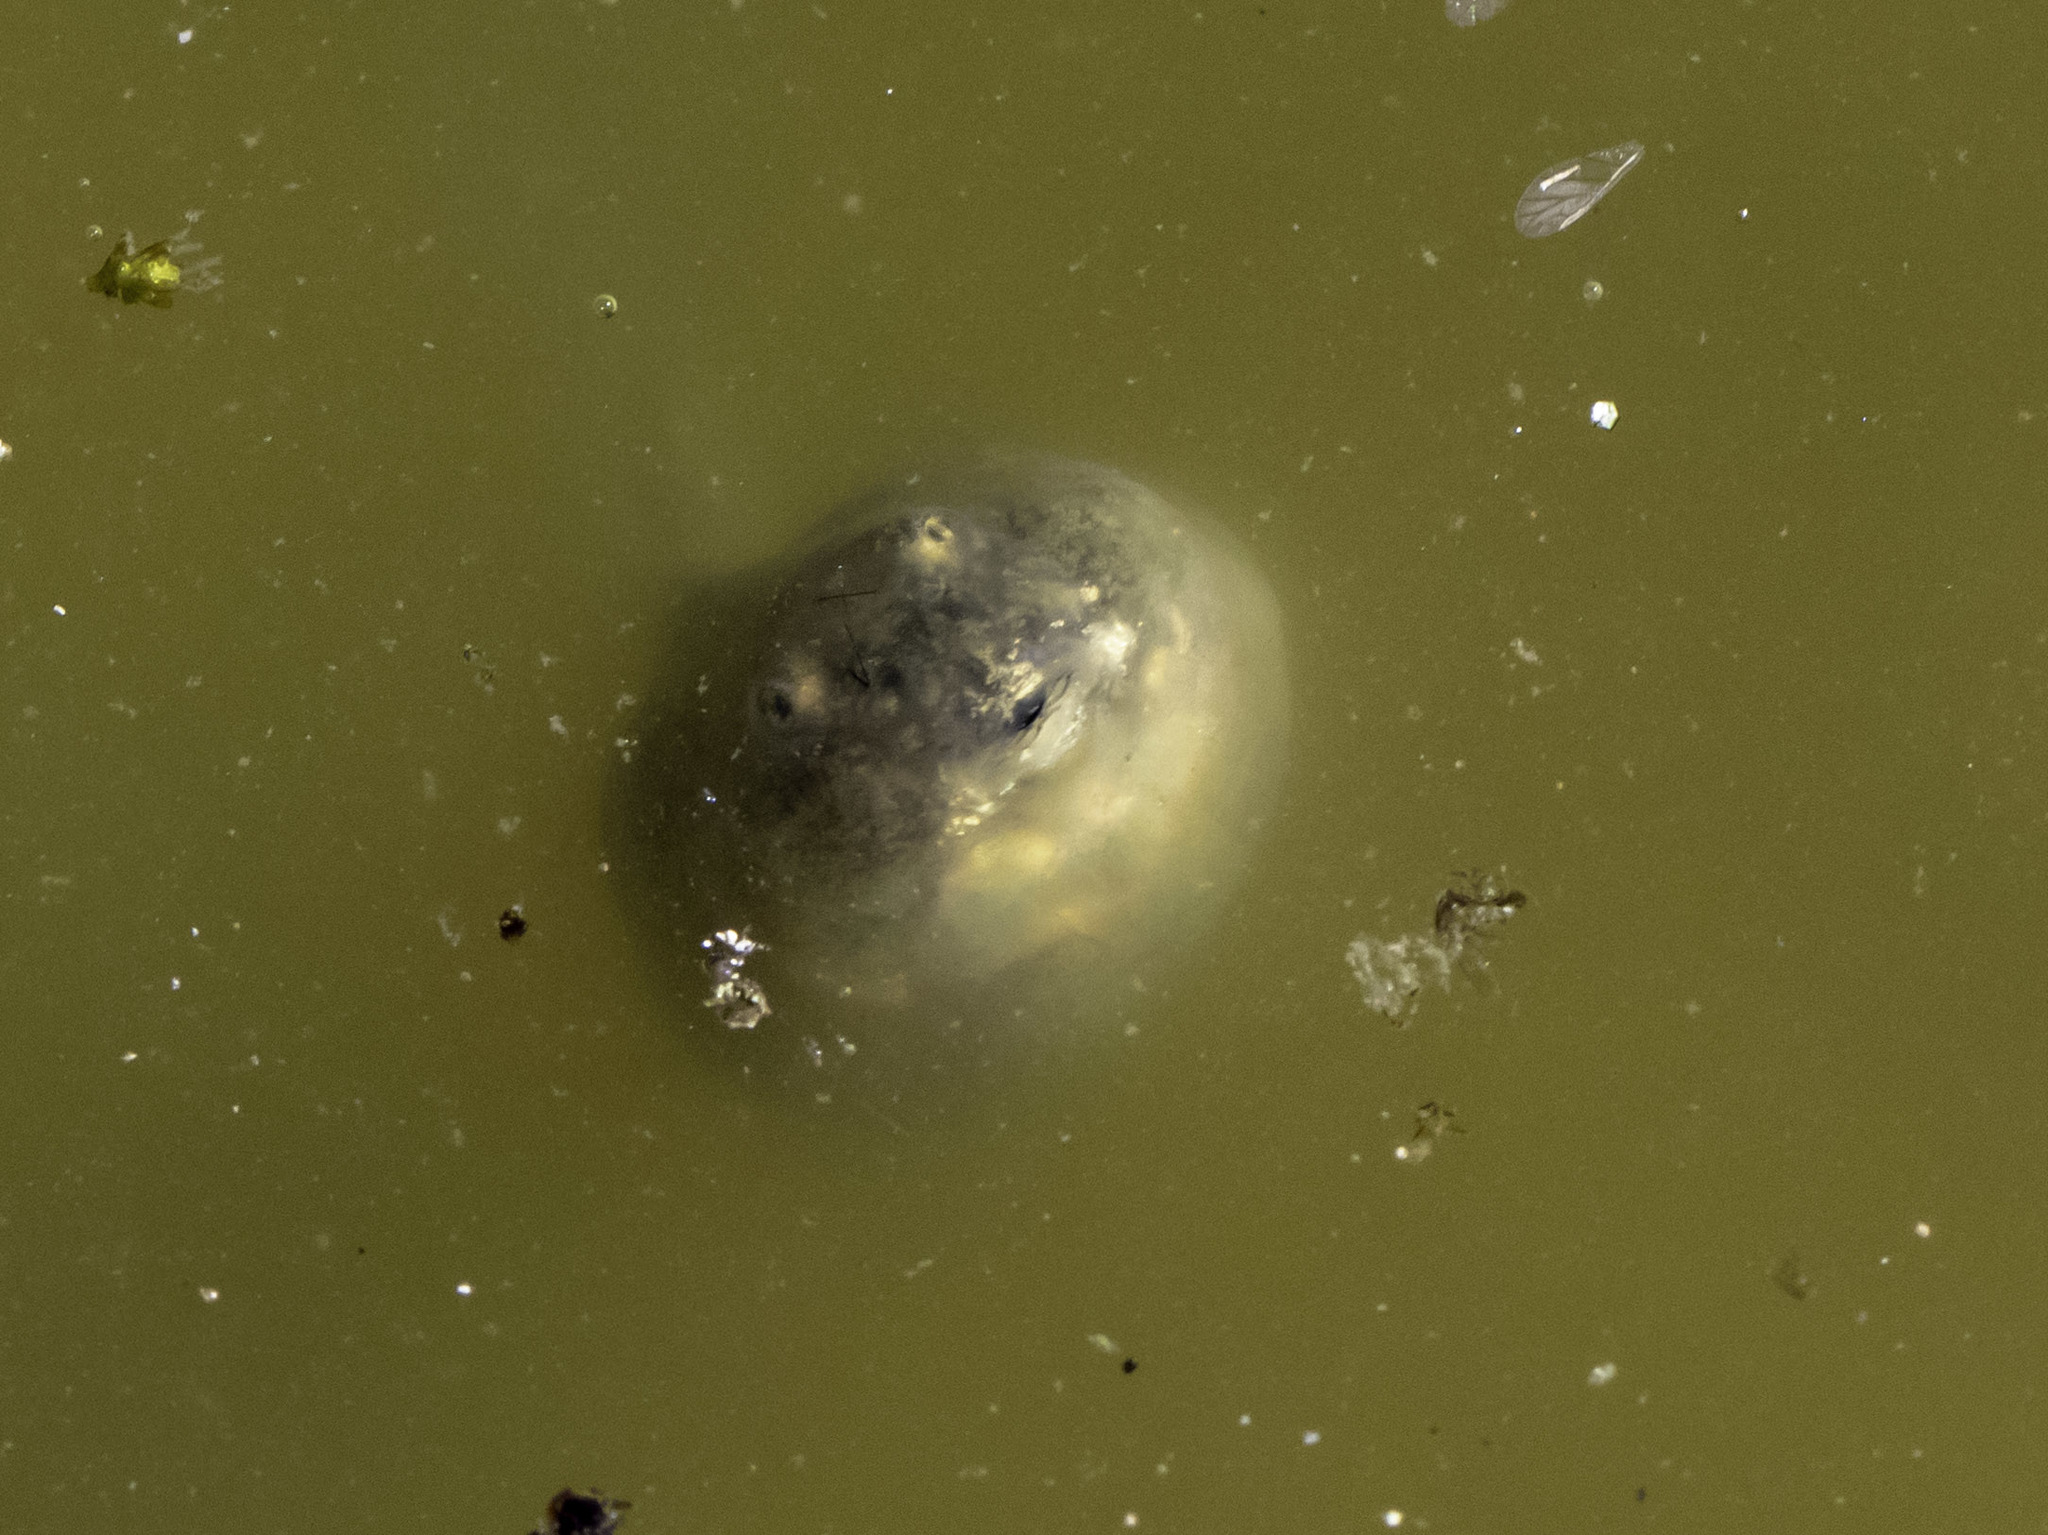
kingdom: Animalia
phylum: Chordata
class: Amphibia
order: Anura
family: Scaphiopodidae
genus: Spea
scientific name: Spea hammondii
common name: Western spadefoot toad
